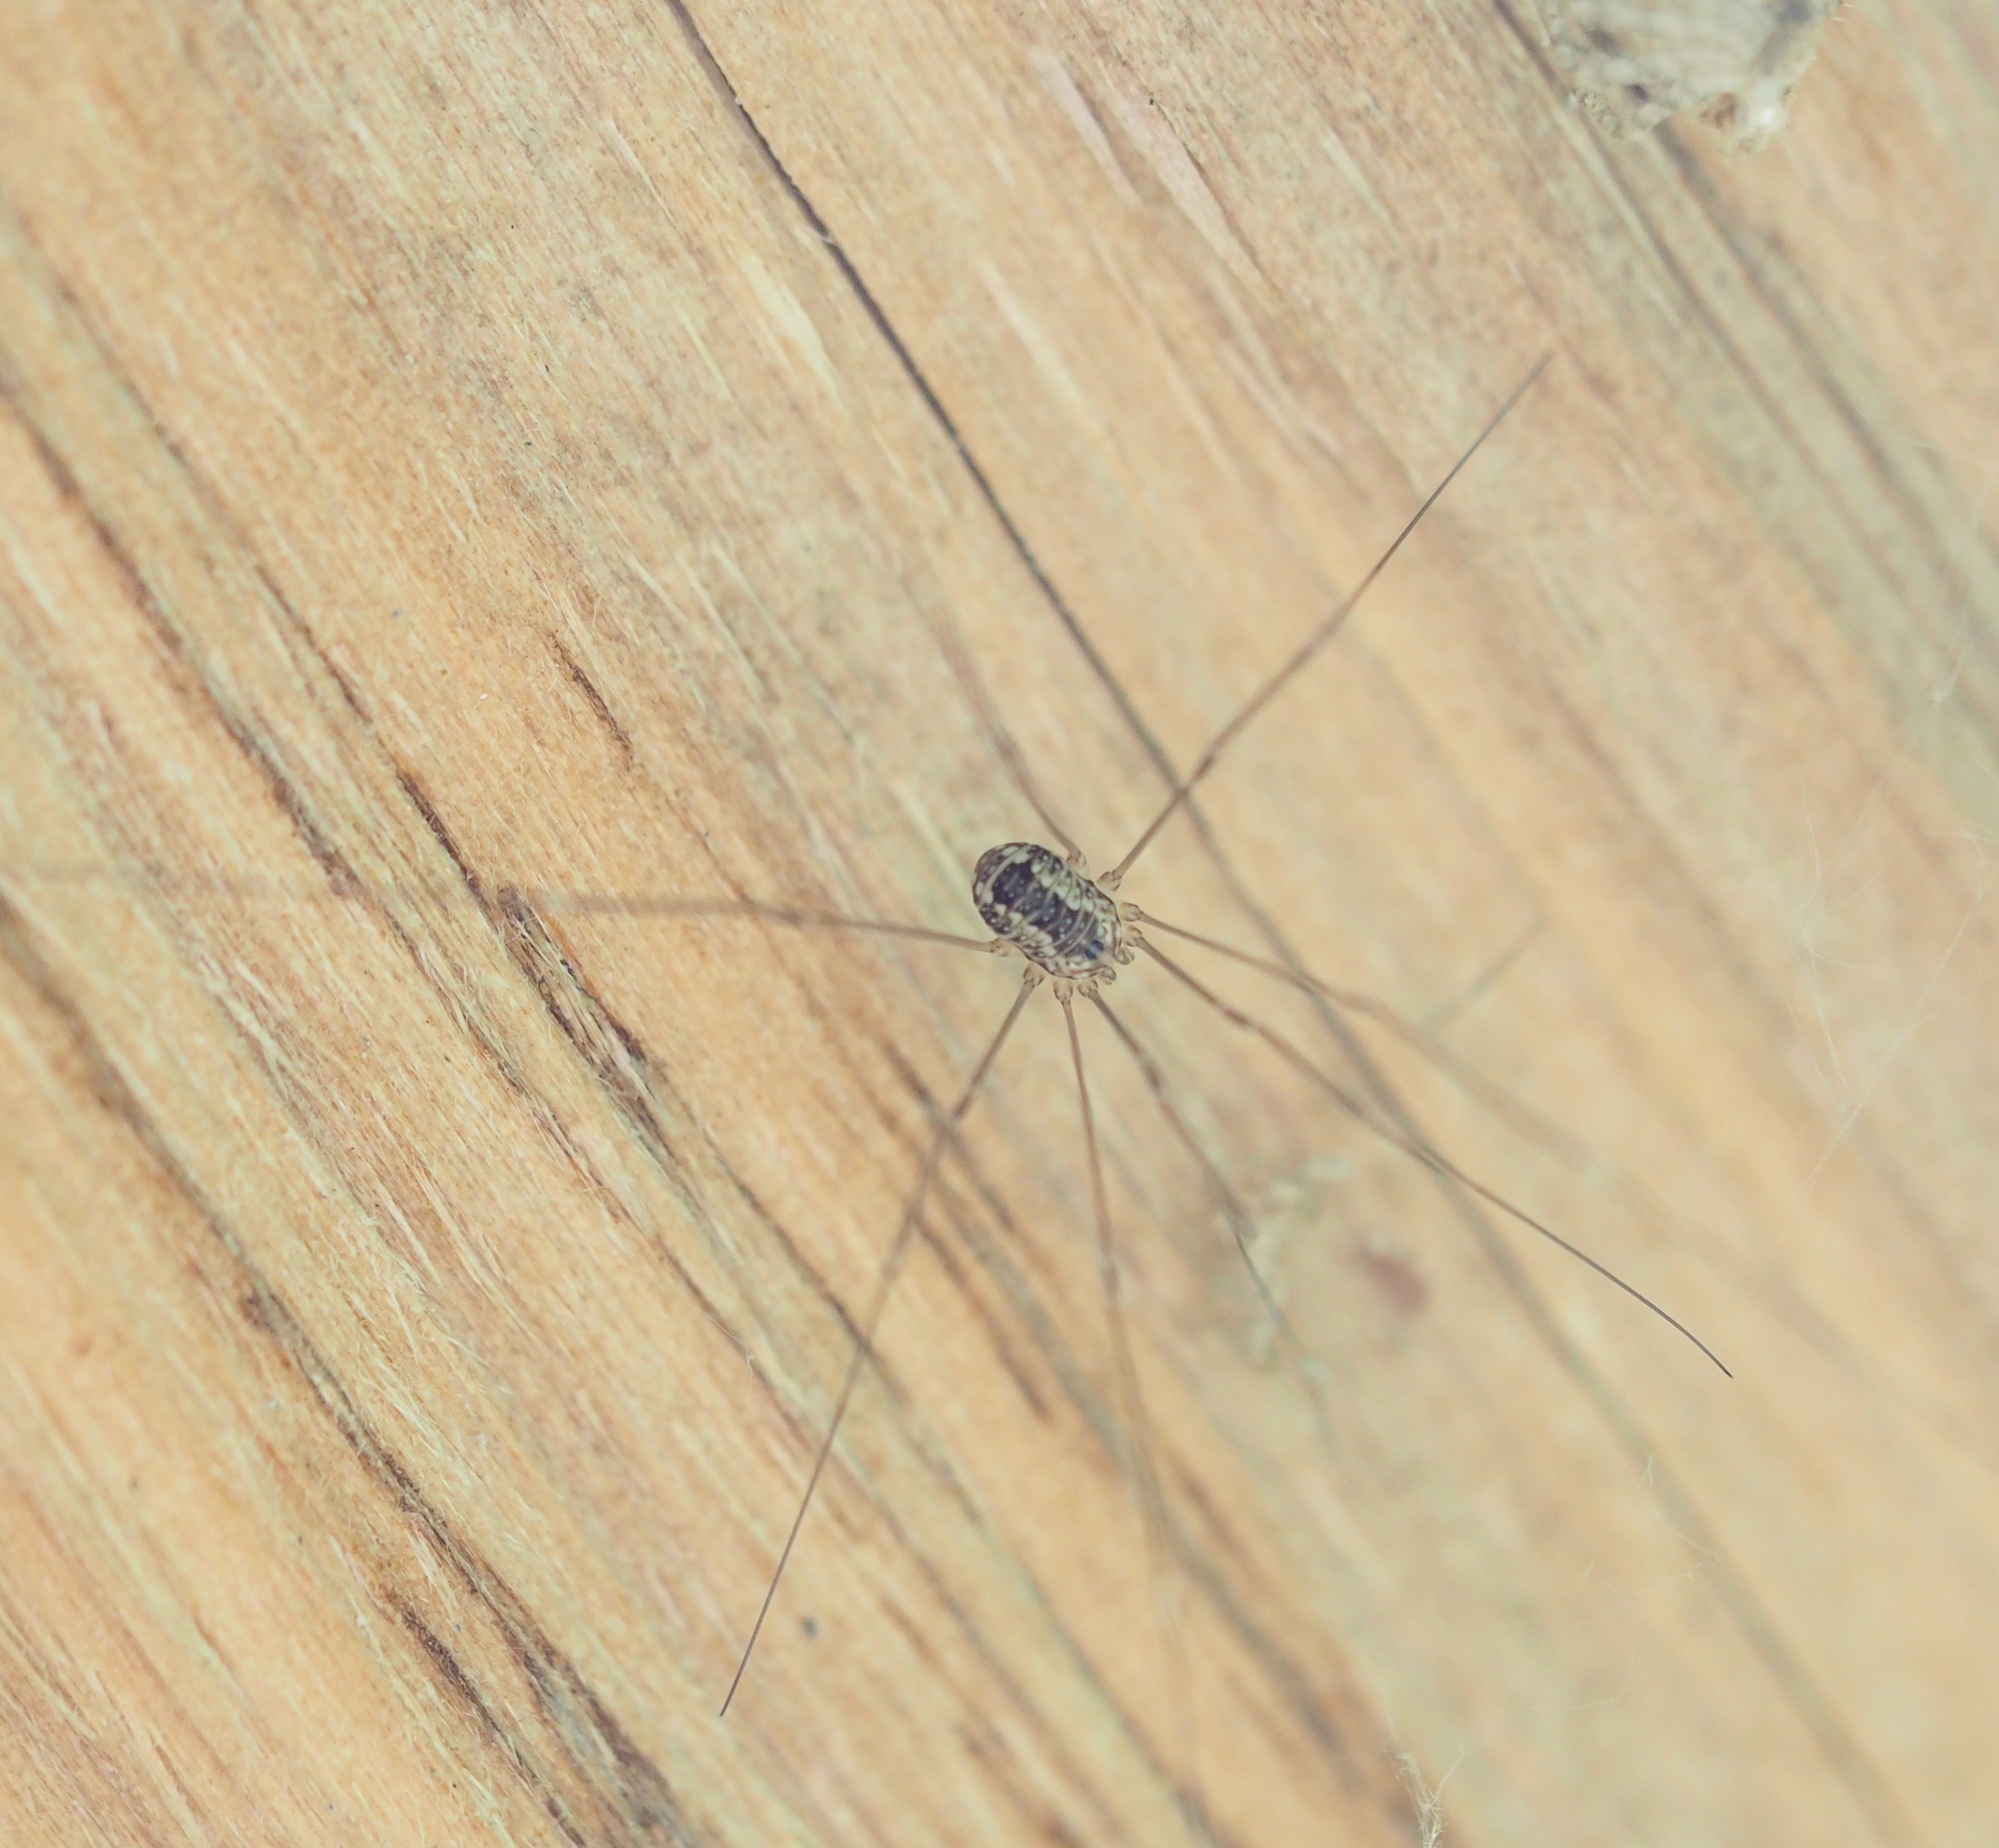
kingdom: Animalia
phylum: Arthropoda
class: Arachnida
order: Opiliones
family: Sclerosomatidae
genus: Leiobunum
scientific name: Leiobunum
